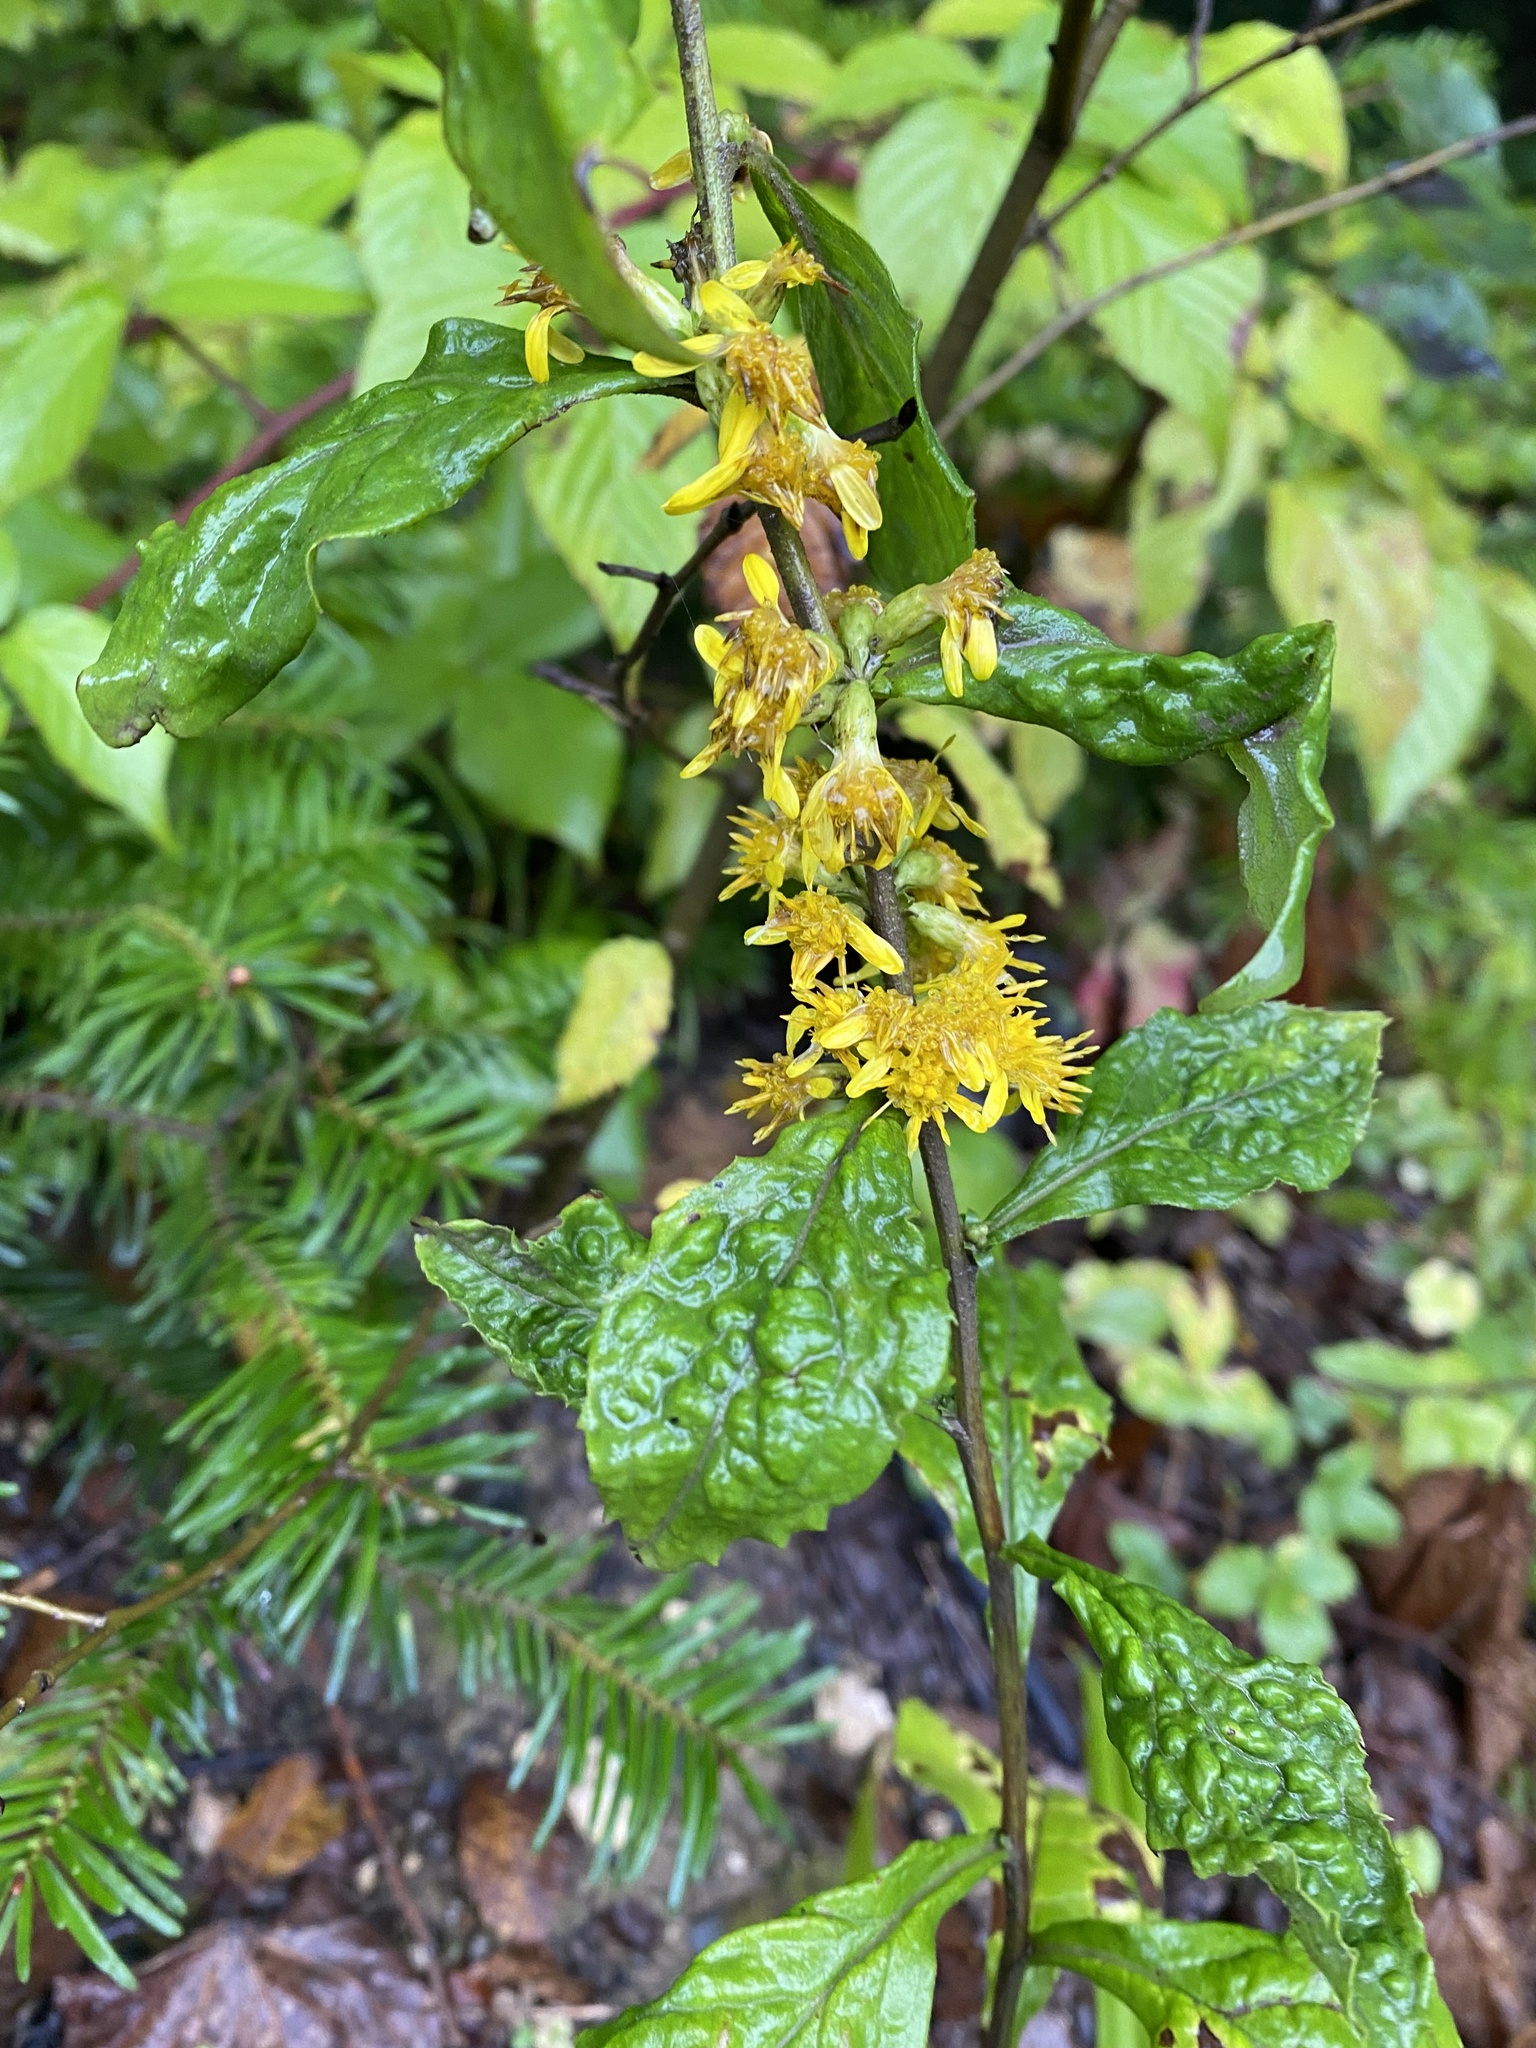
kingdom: Plantae
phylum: Tracheophyta
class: Magnoliopsida
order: Asterales
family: Asteraceae
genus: Solidago
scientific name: Solidago virgaurea
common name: Goldenrod
